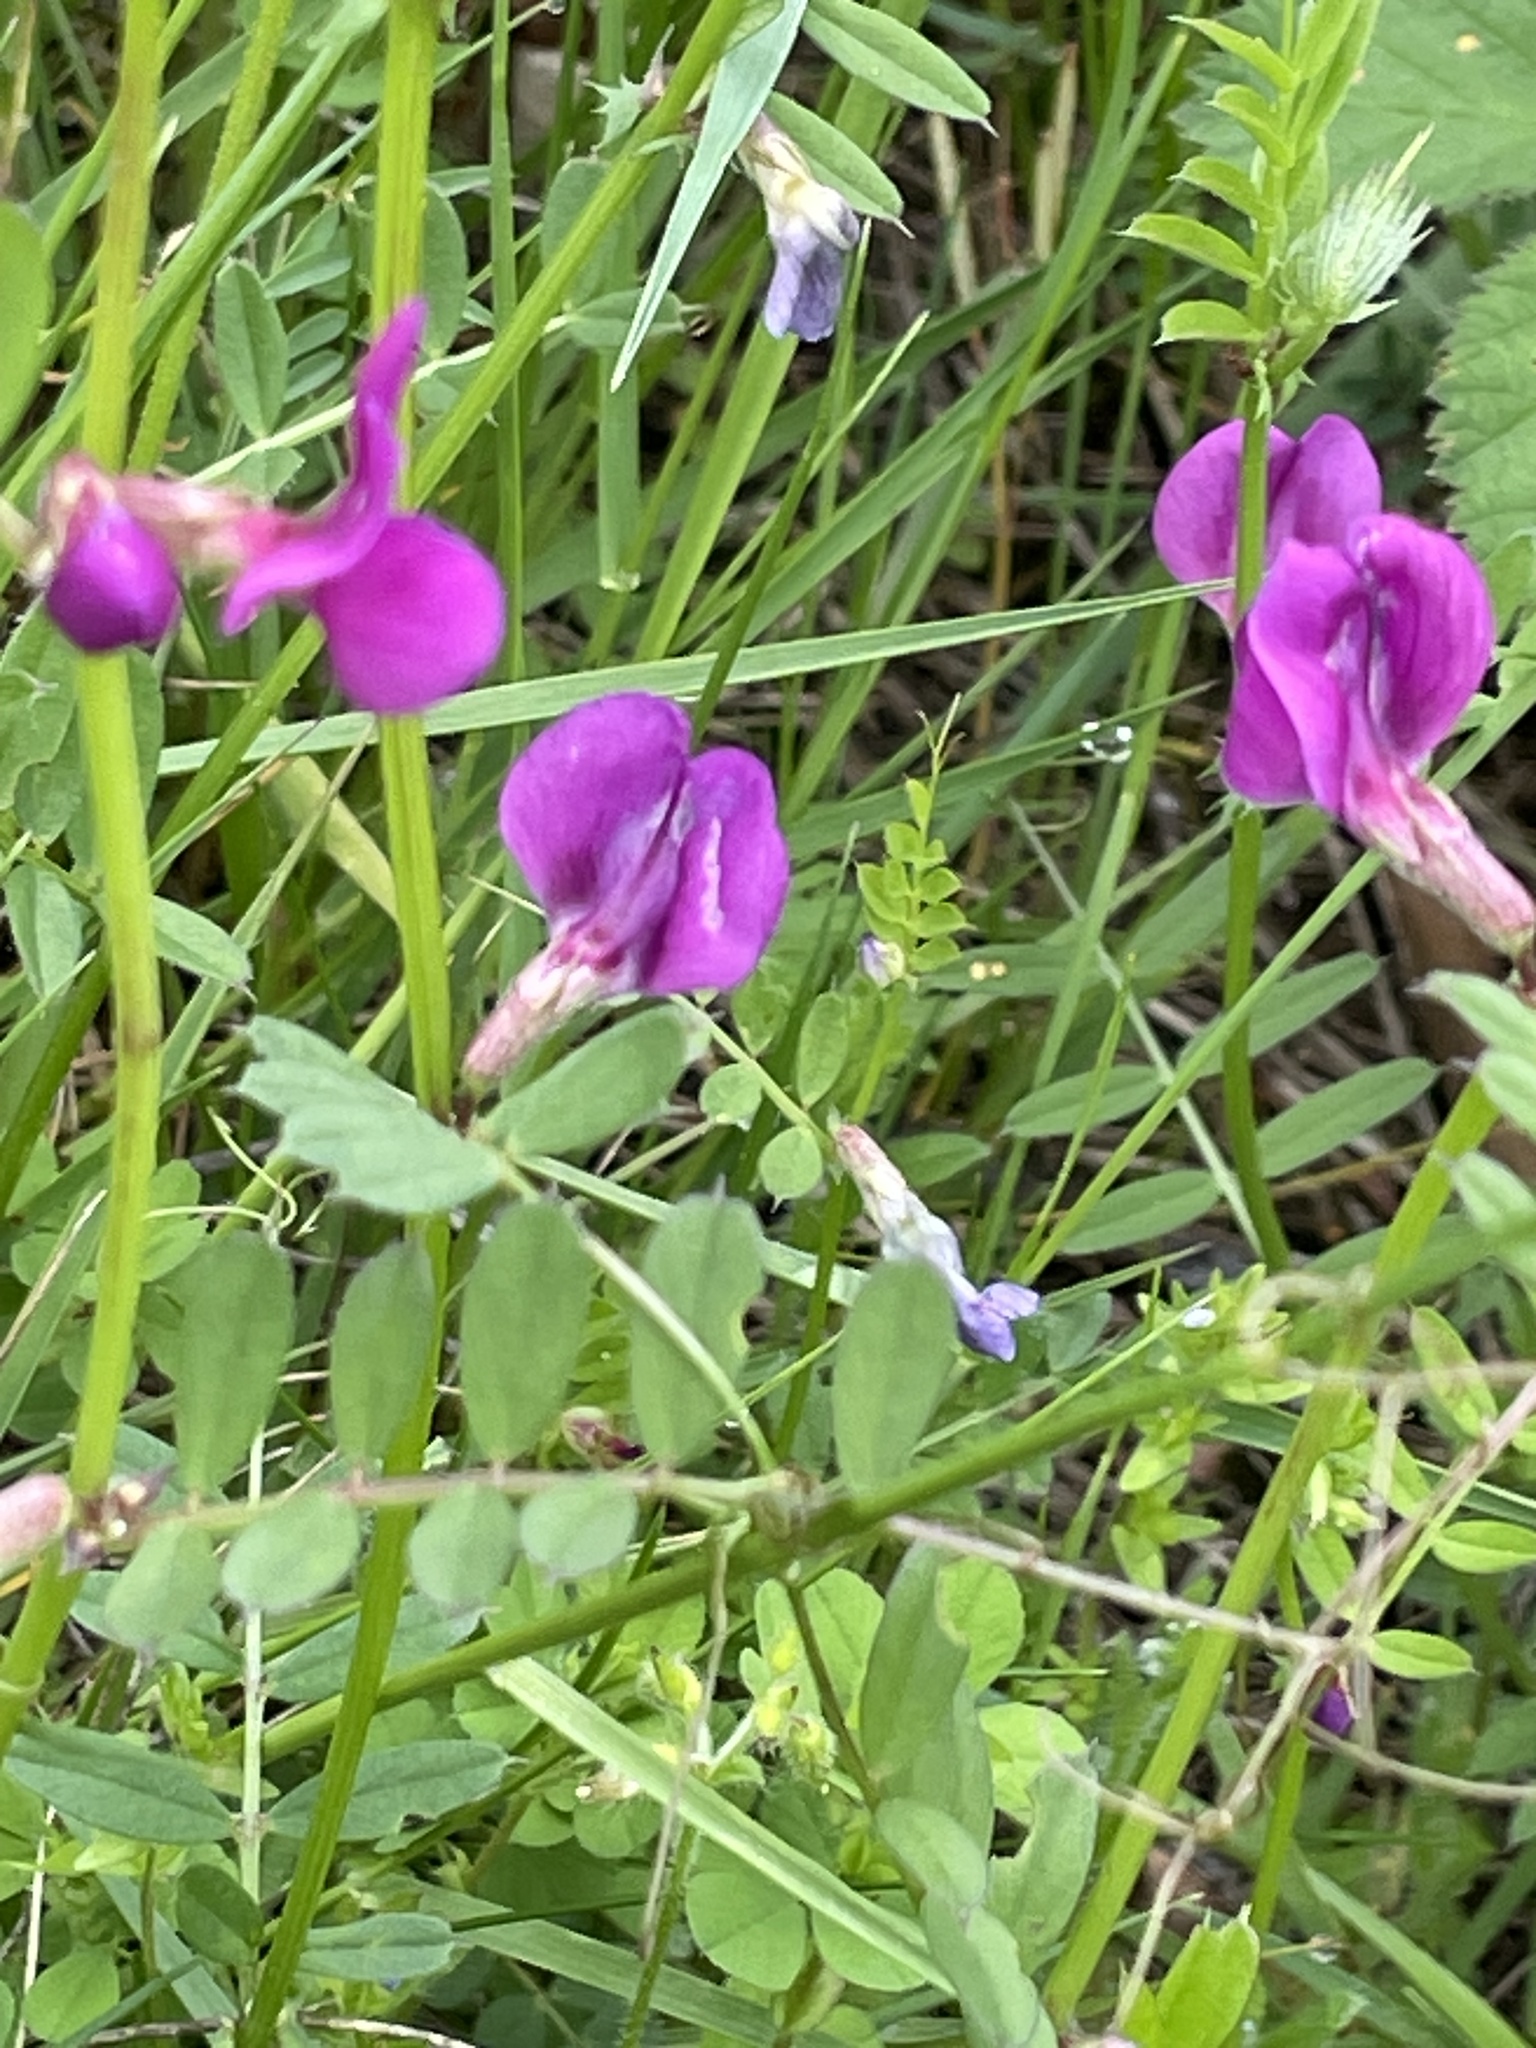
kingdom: Plantae
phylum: Tracheophyta
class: Magnoliopsida
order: Fabales
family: Fabaceae
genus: Vicia
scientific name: Vicia sativa
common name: Garden vetch
